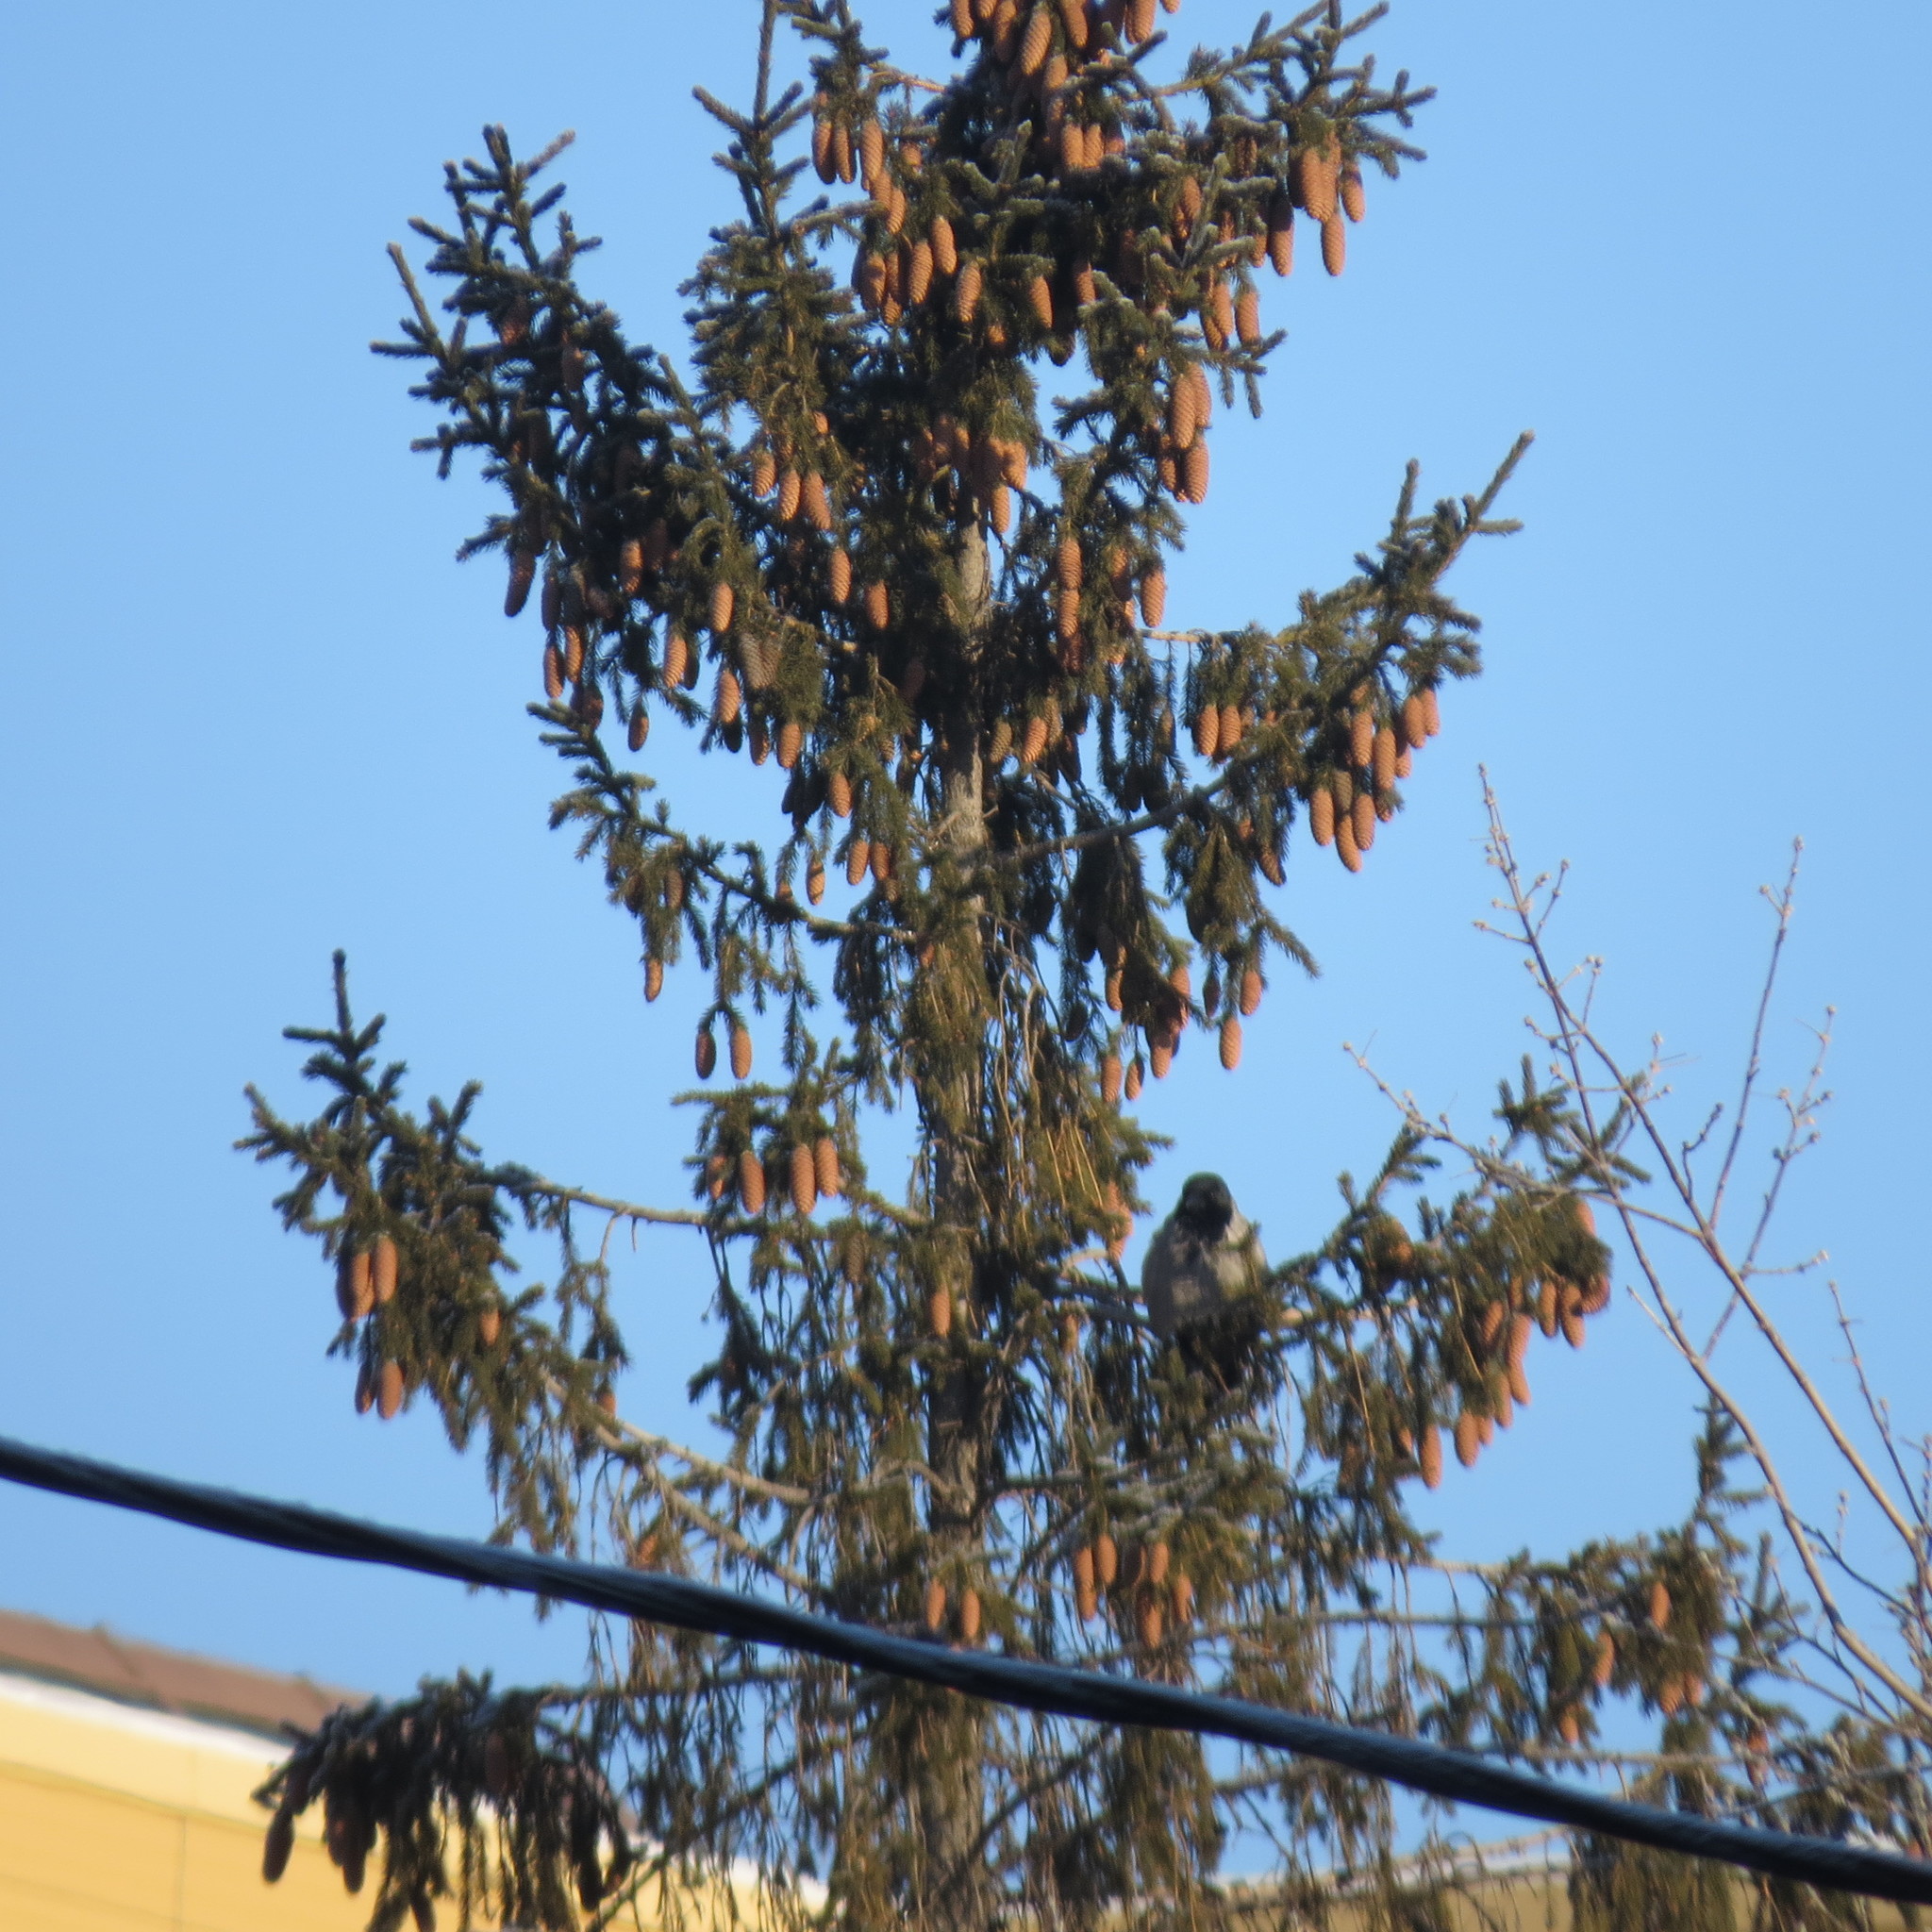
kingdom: Animalia
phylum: Chordata
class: Aves
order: Passeriformes
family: Corvidae
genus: Corvus
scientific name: Corvus cornix
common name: Hooded crow
